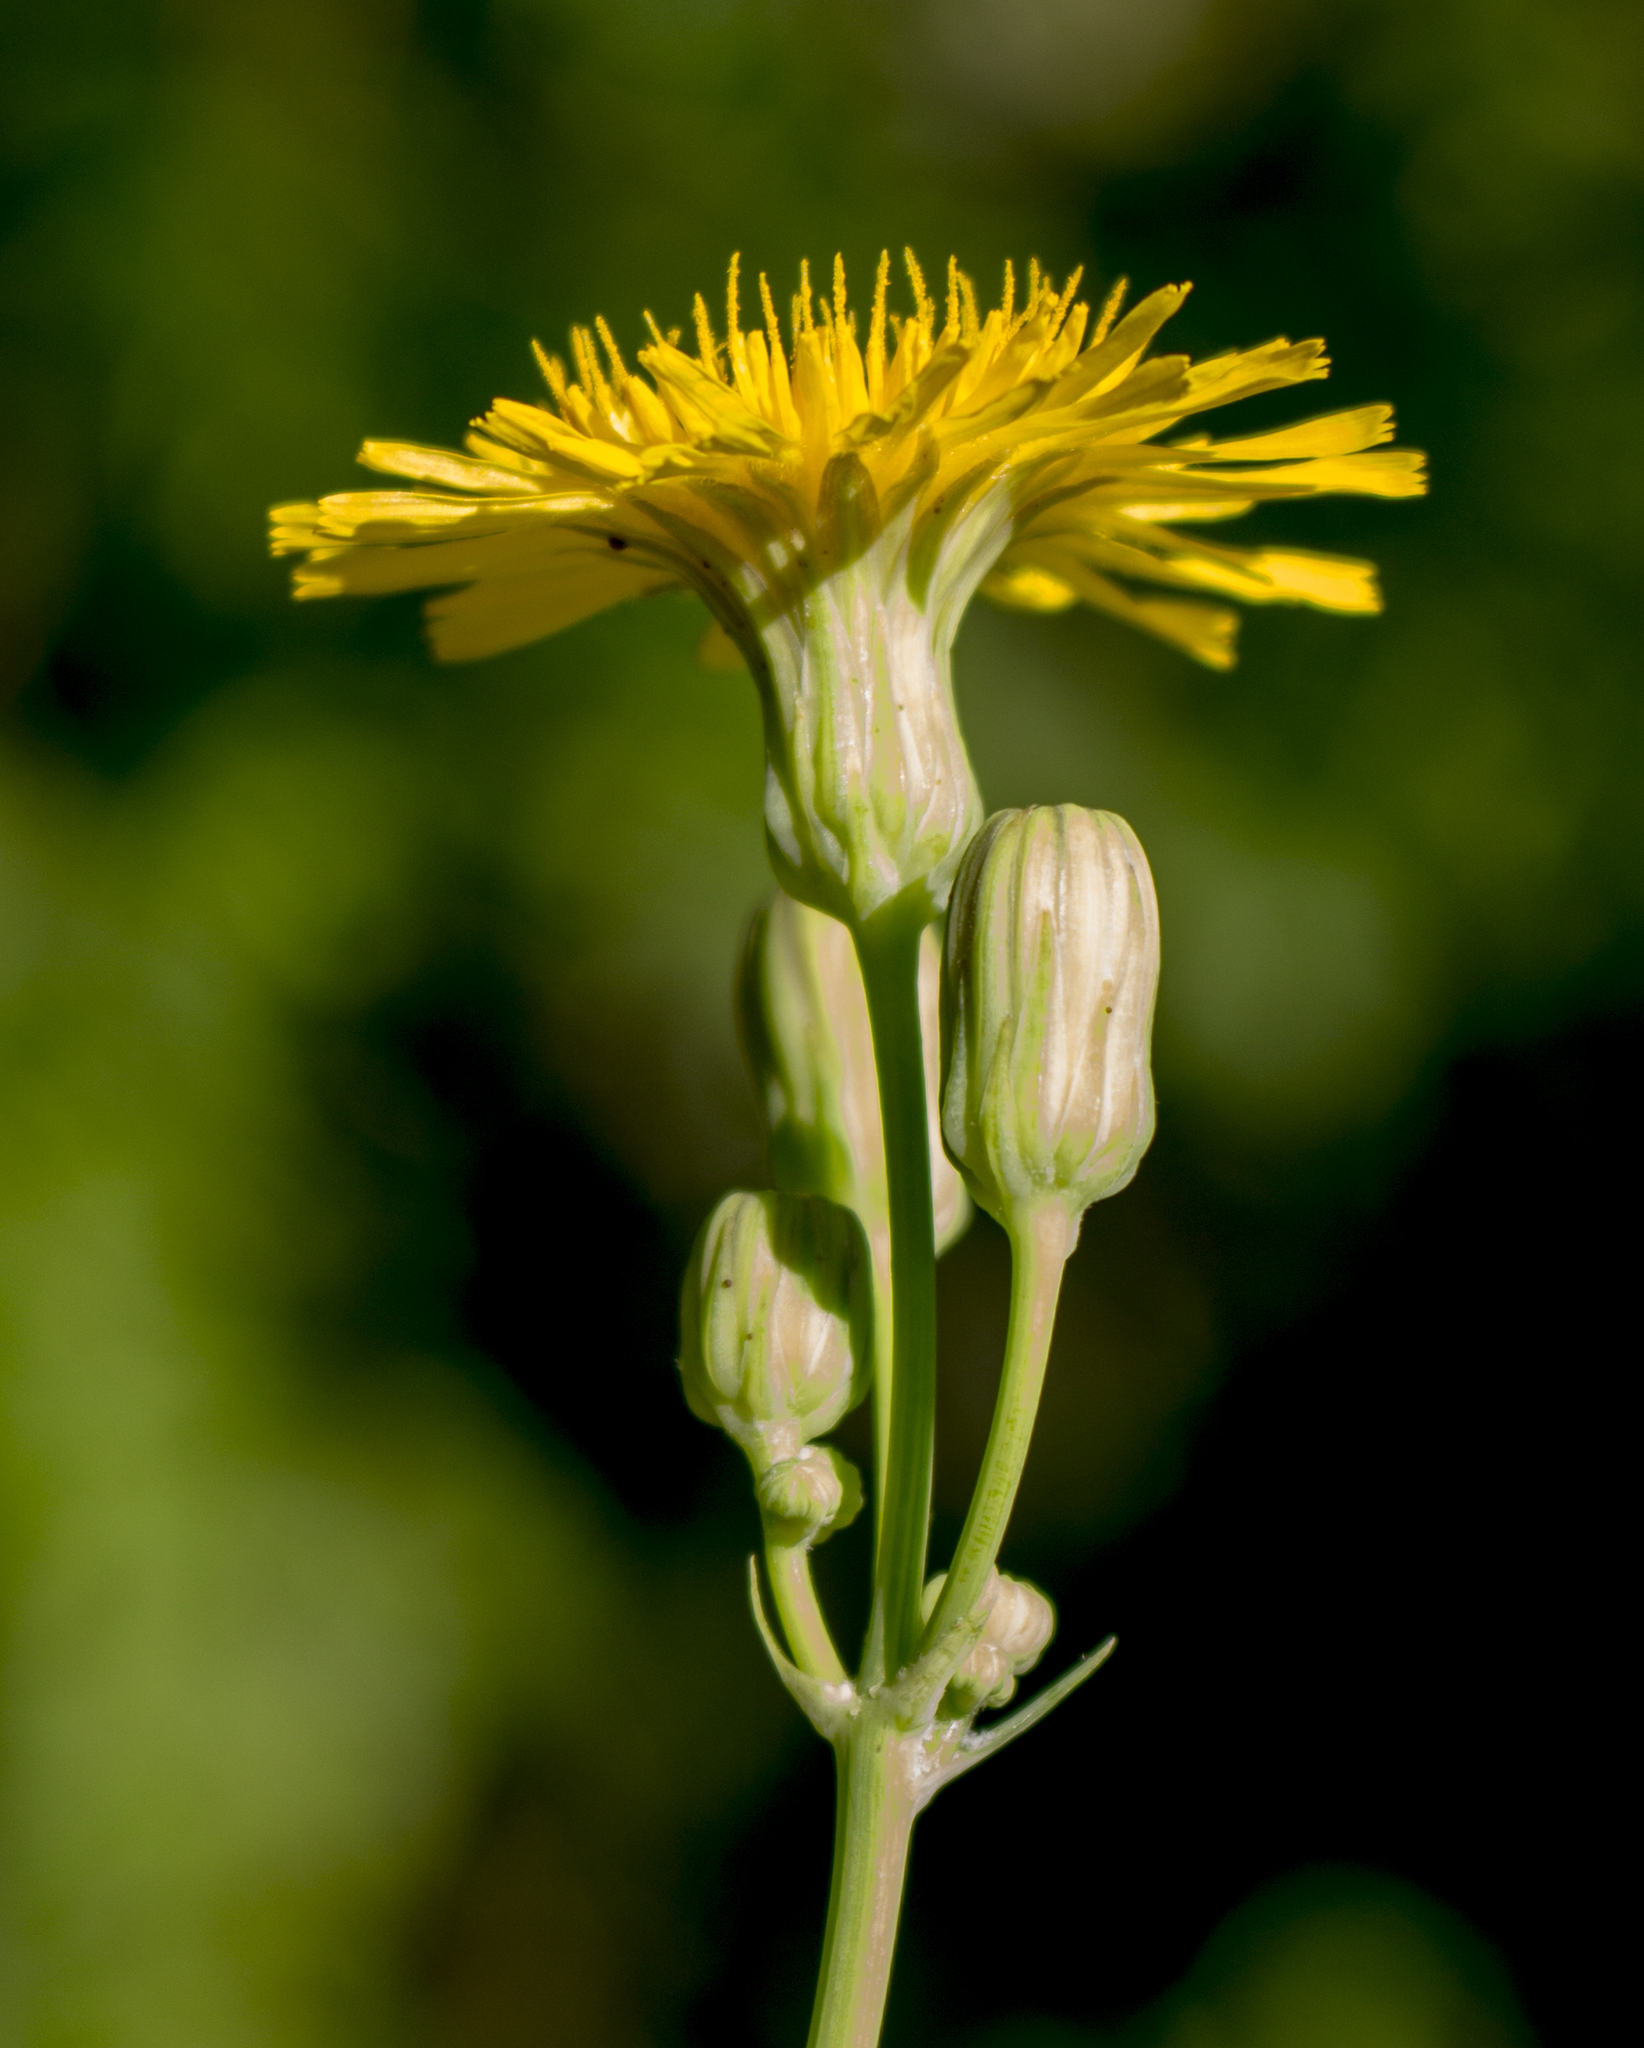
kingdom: Plantae
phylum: Tracheophyta
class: Magnoliopsida
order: Asterales
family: Asteraceae
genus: Sonchus
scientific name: Sonchus arvensis
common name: Perennial sow-thistle
